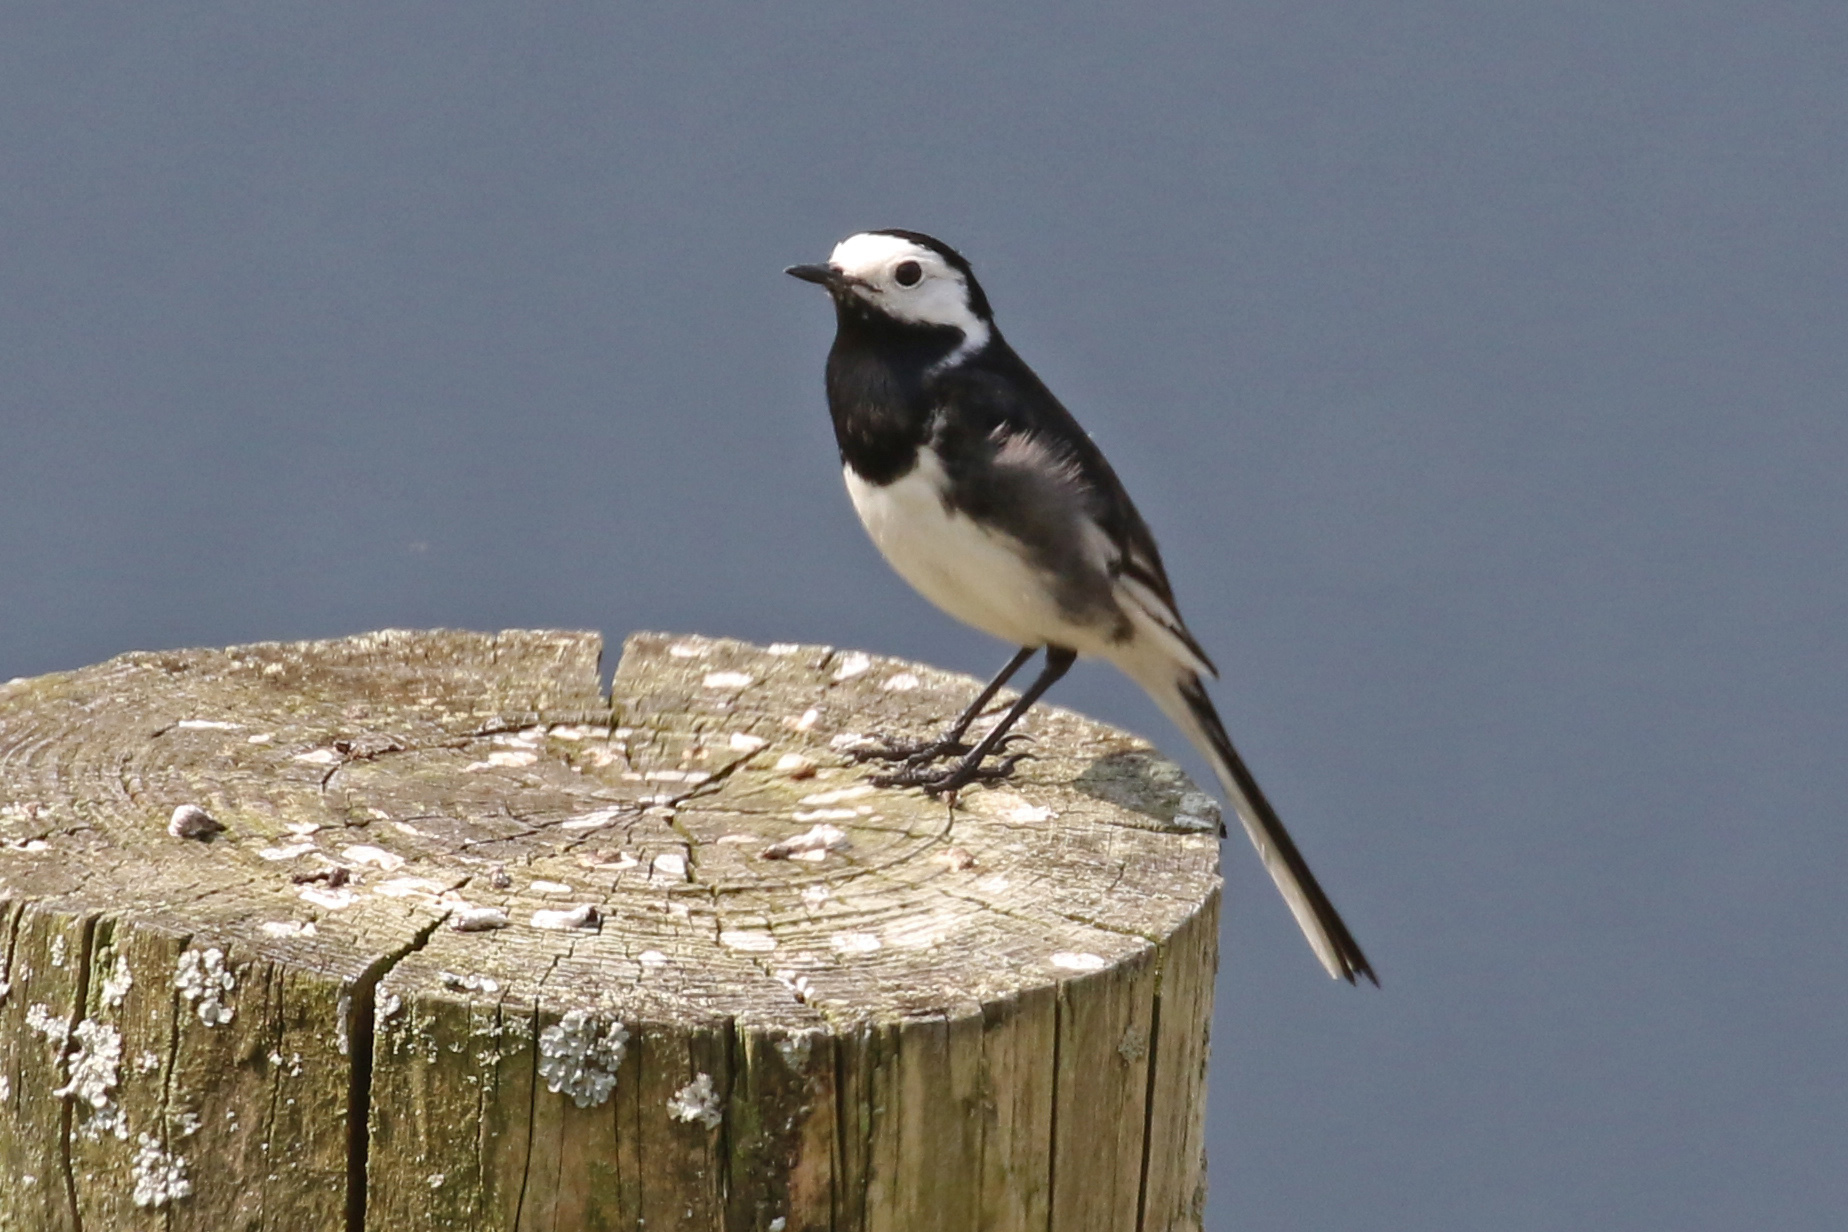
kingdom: Animalia
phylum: Chordata
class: Aves
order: Passeriformes
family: Motacillidae
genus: Motacilla
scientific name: Motacilla alba
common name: White wagtail
